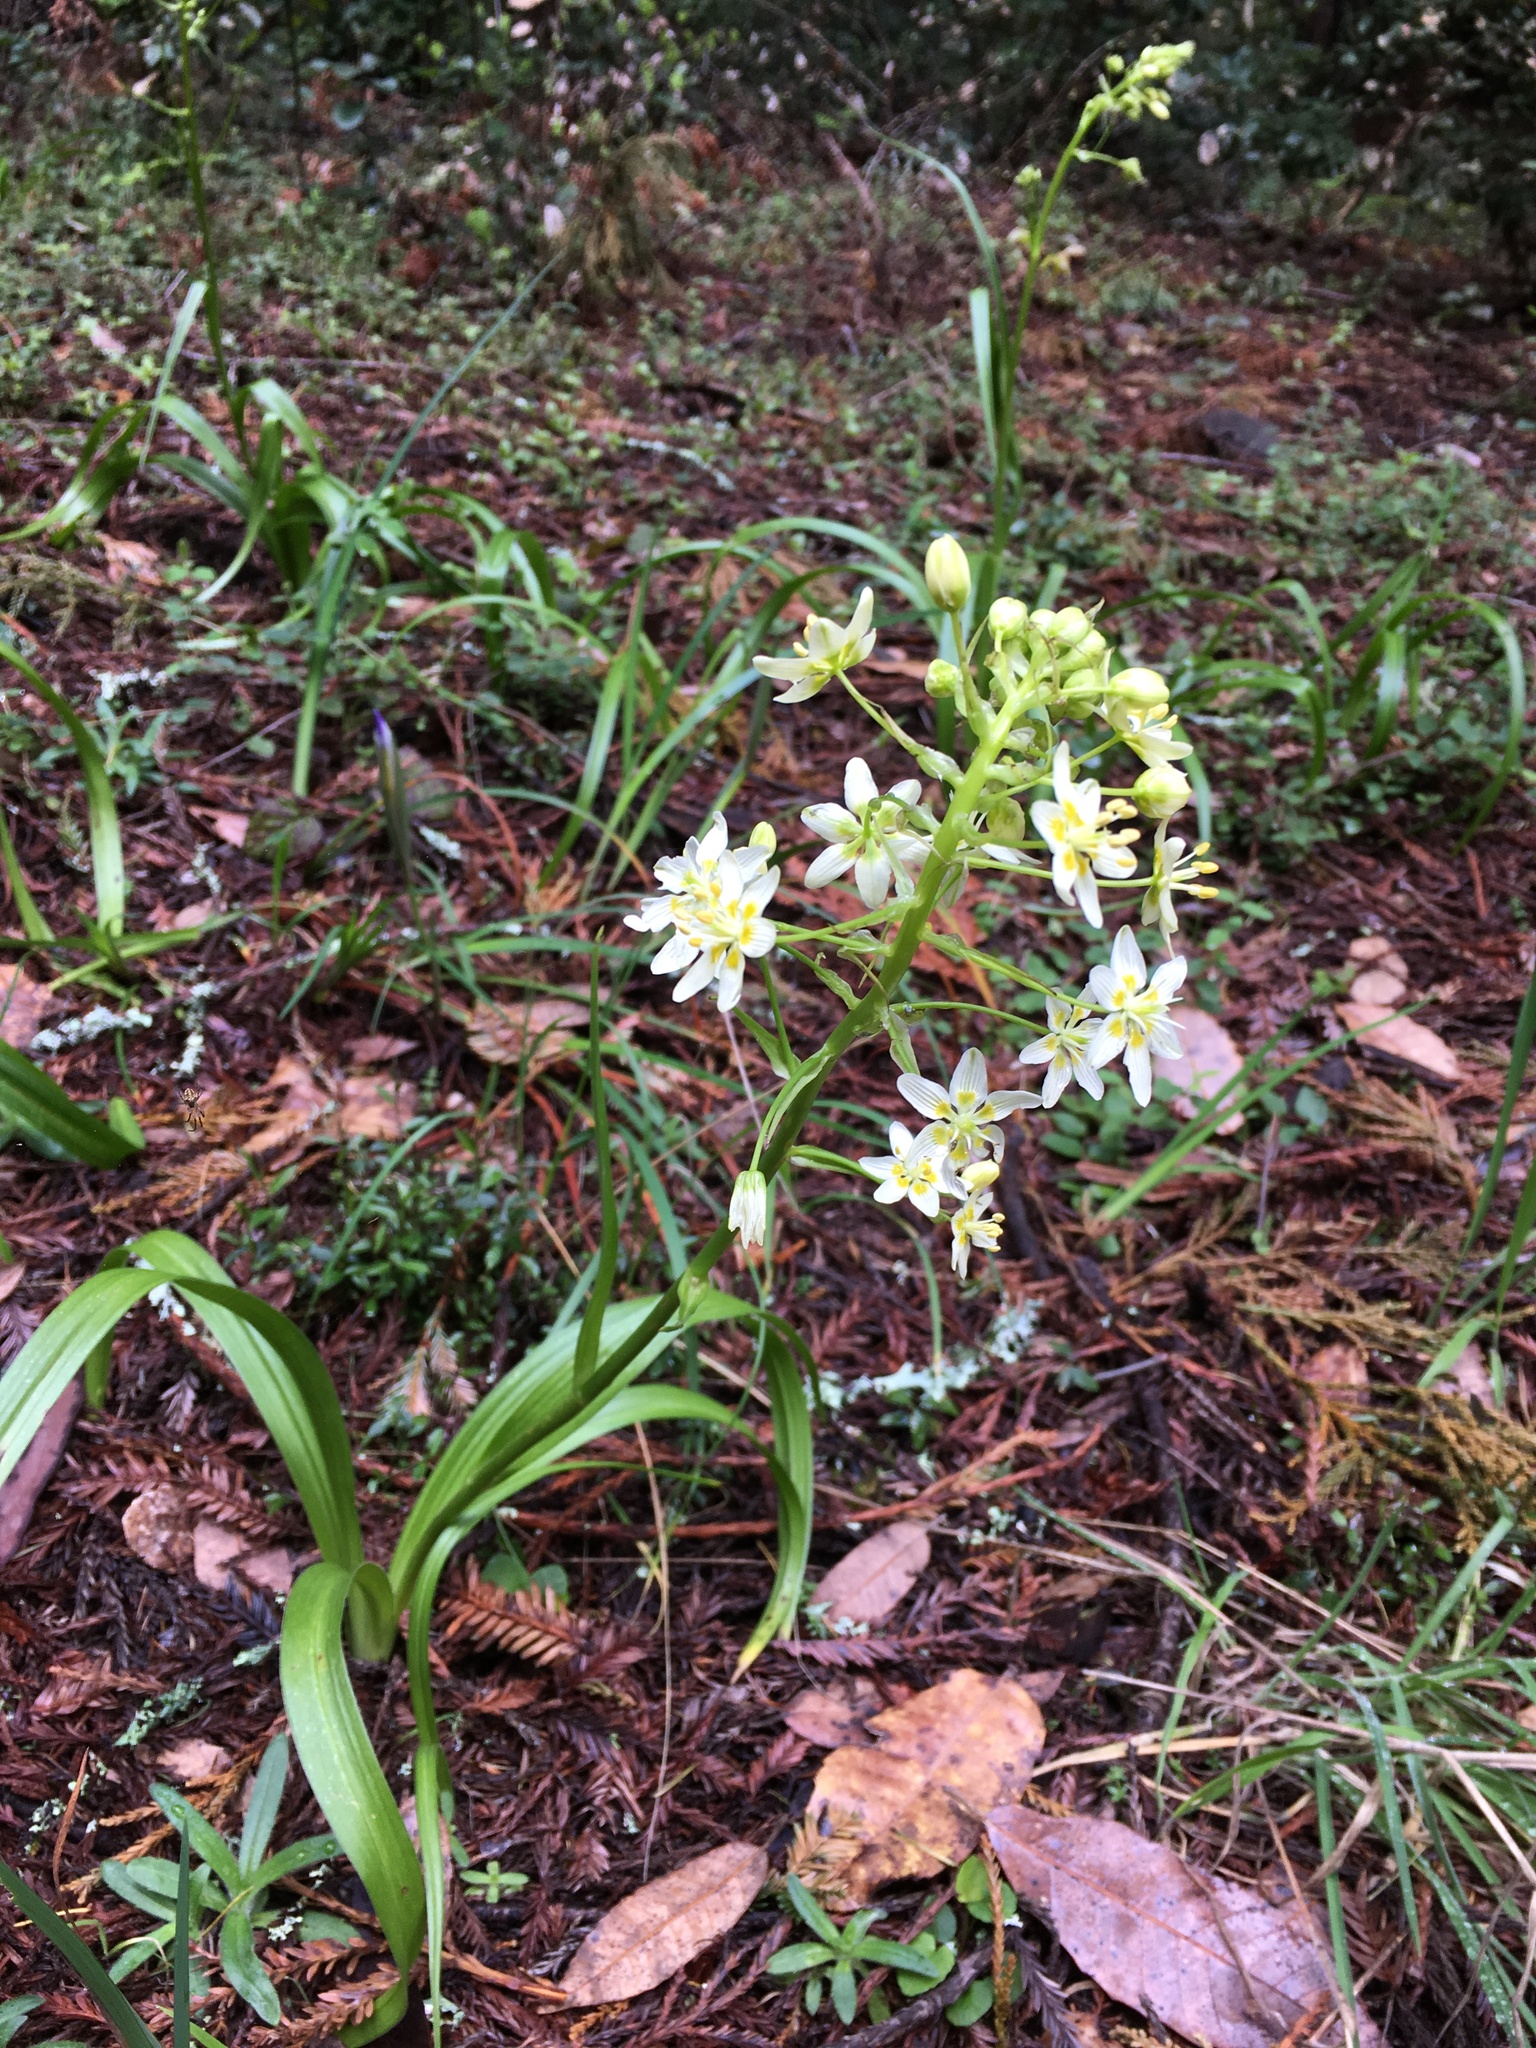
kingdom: Plantae
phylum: Tracheophyta
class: Liliopsida
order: Liliales
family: Melanthiaceae
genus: Toxicoscordion
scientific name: Toxicoscordion fremontii
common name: Fremont's death camas
